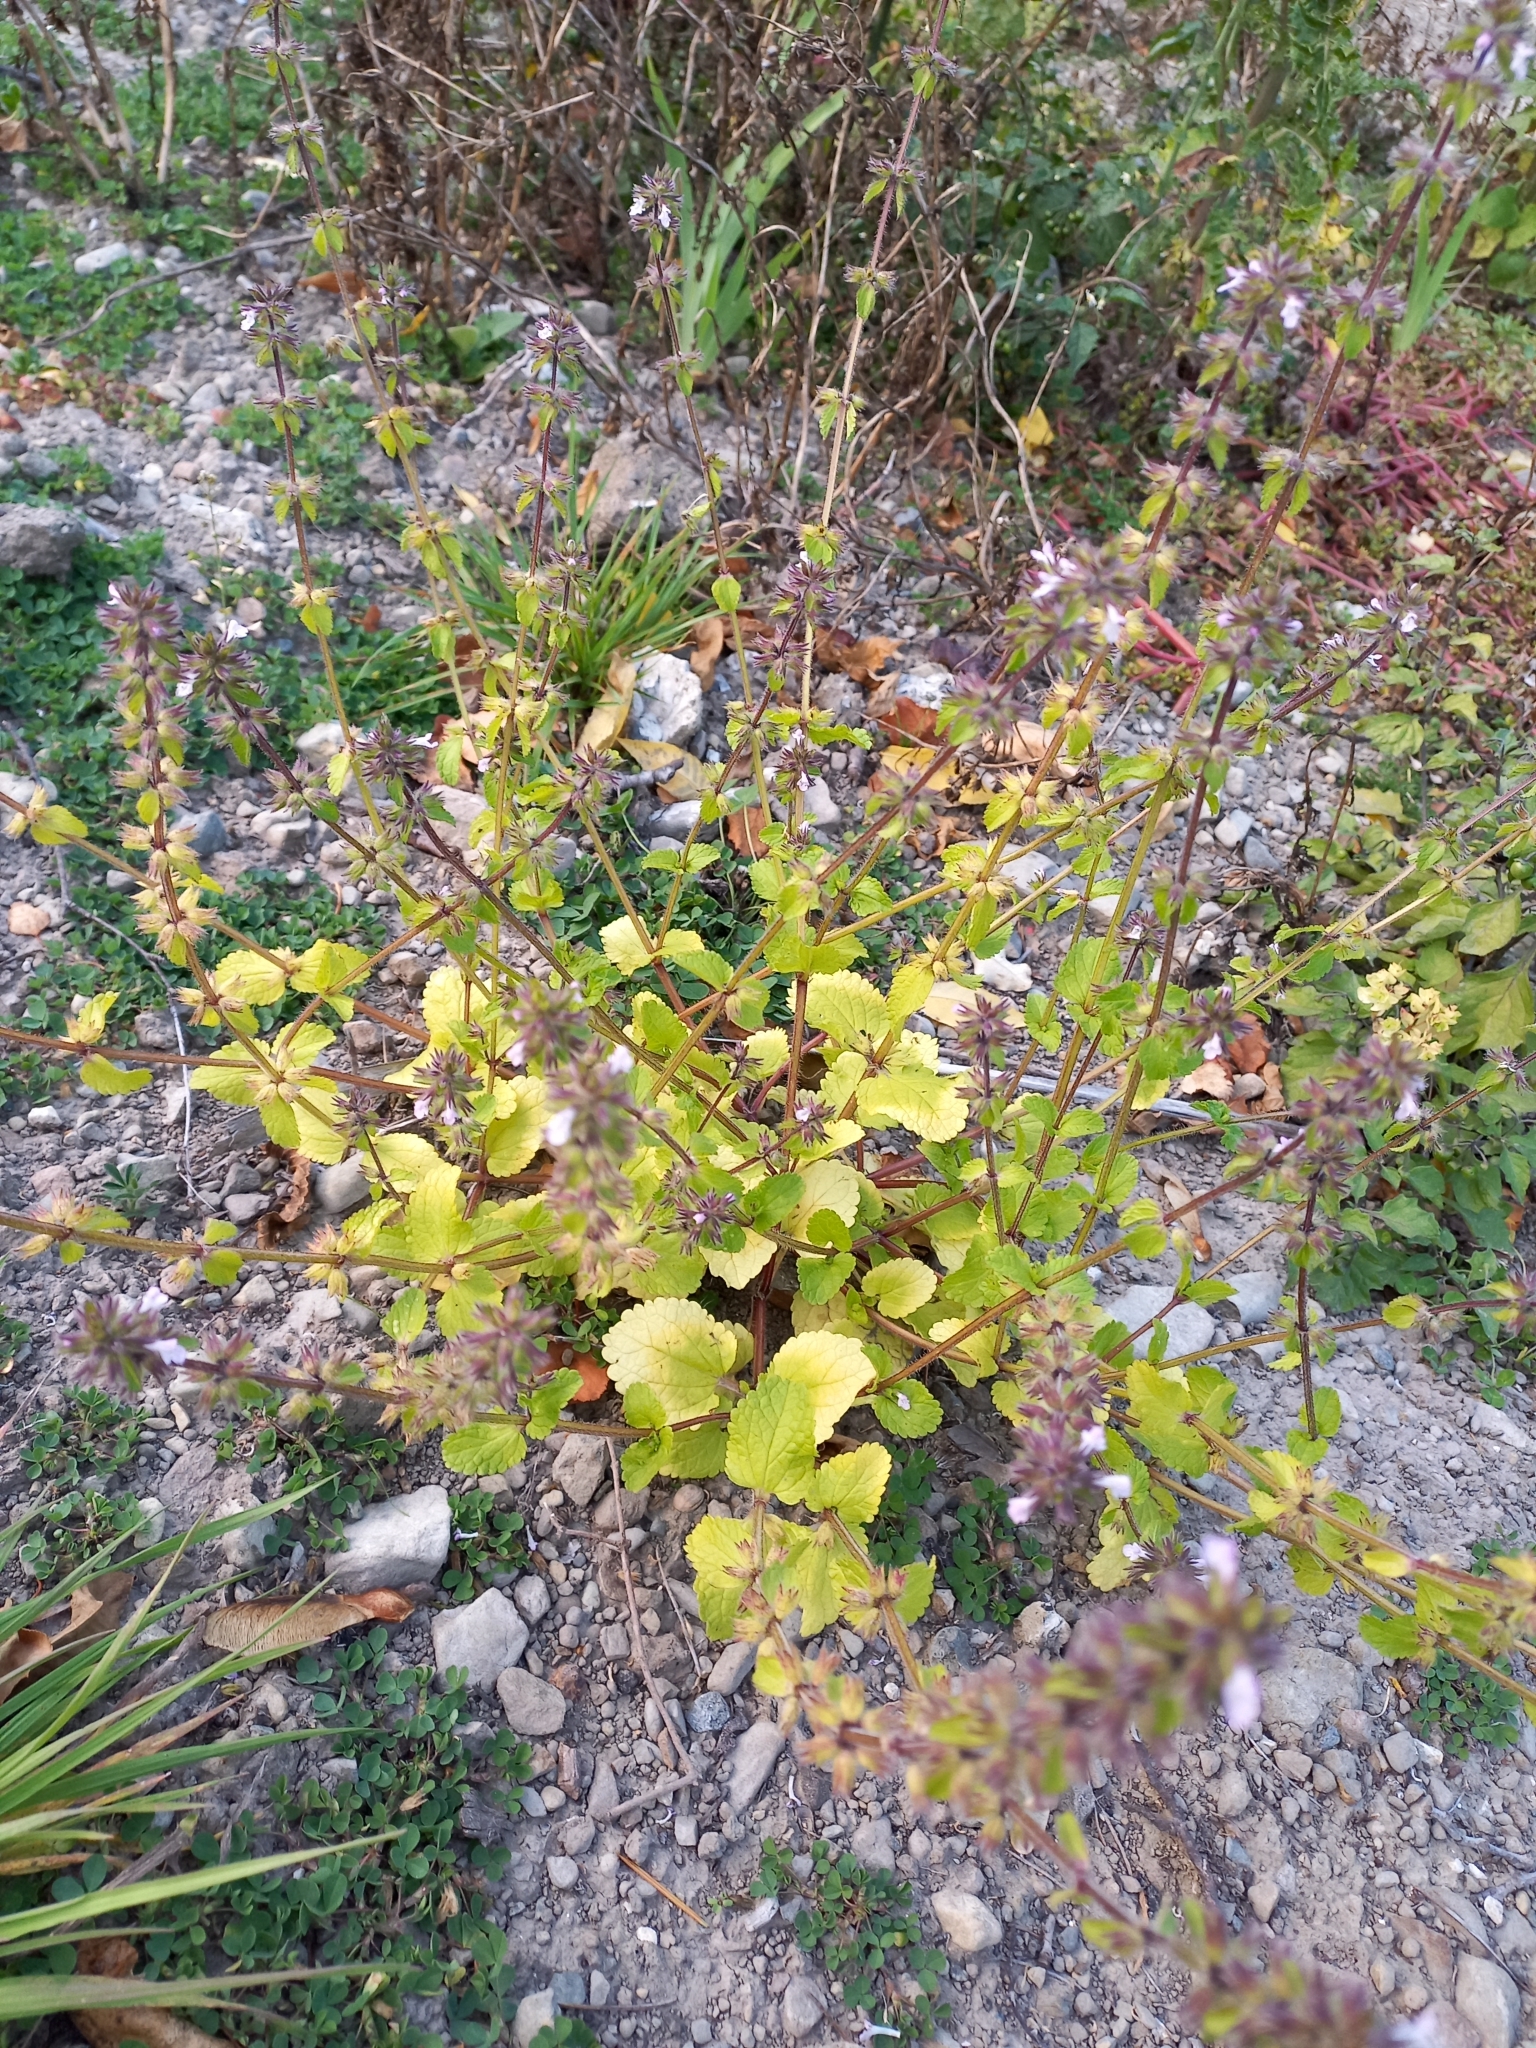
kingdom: Plantae
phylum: Tracheophyta
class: Magnoliopsida
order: Lamiales
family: Lamiaceae
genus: Stachys
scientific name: Stachys arvensis
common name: Field woundwort
